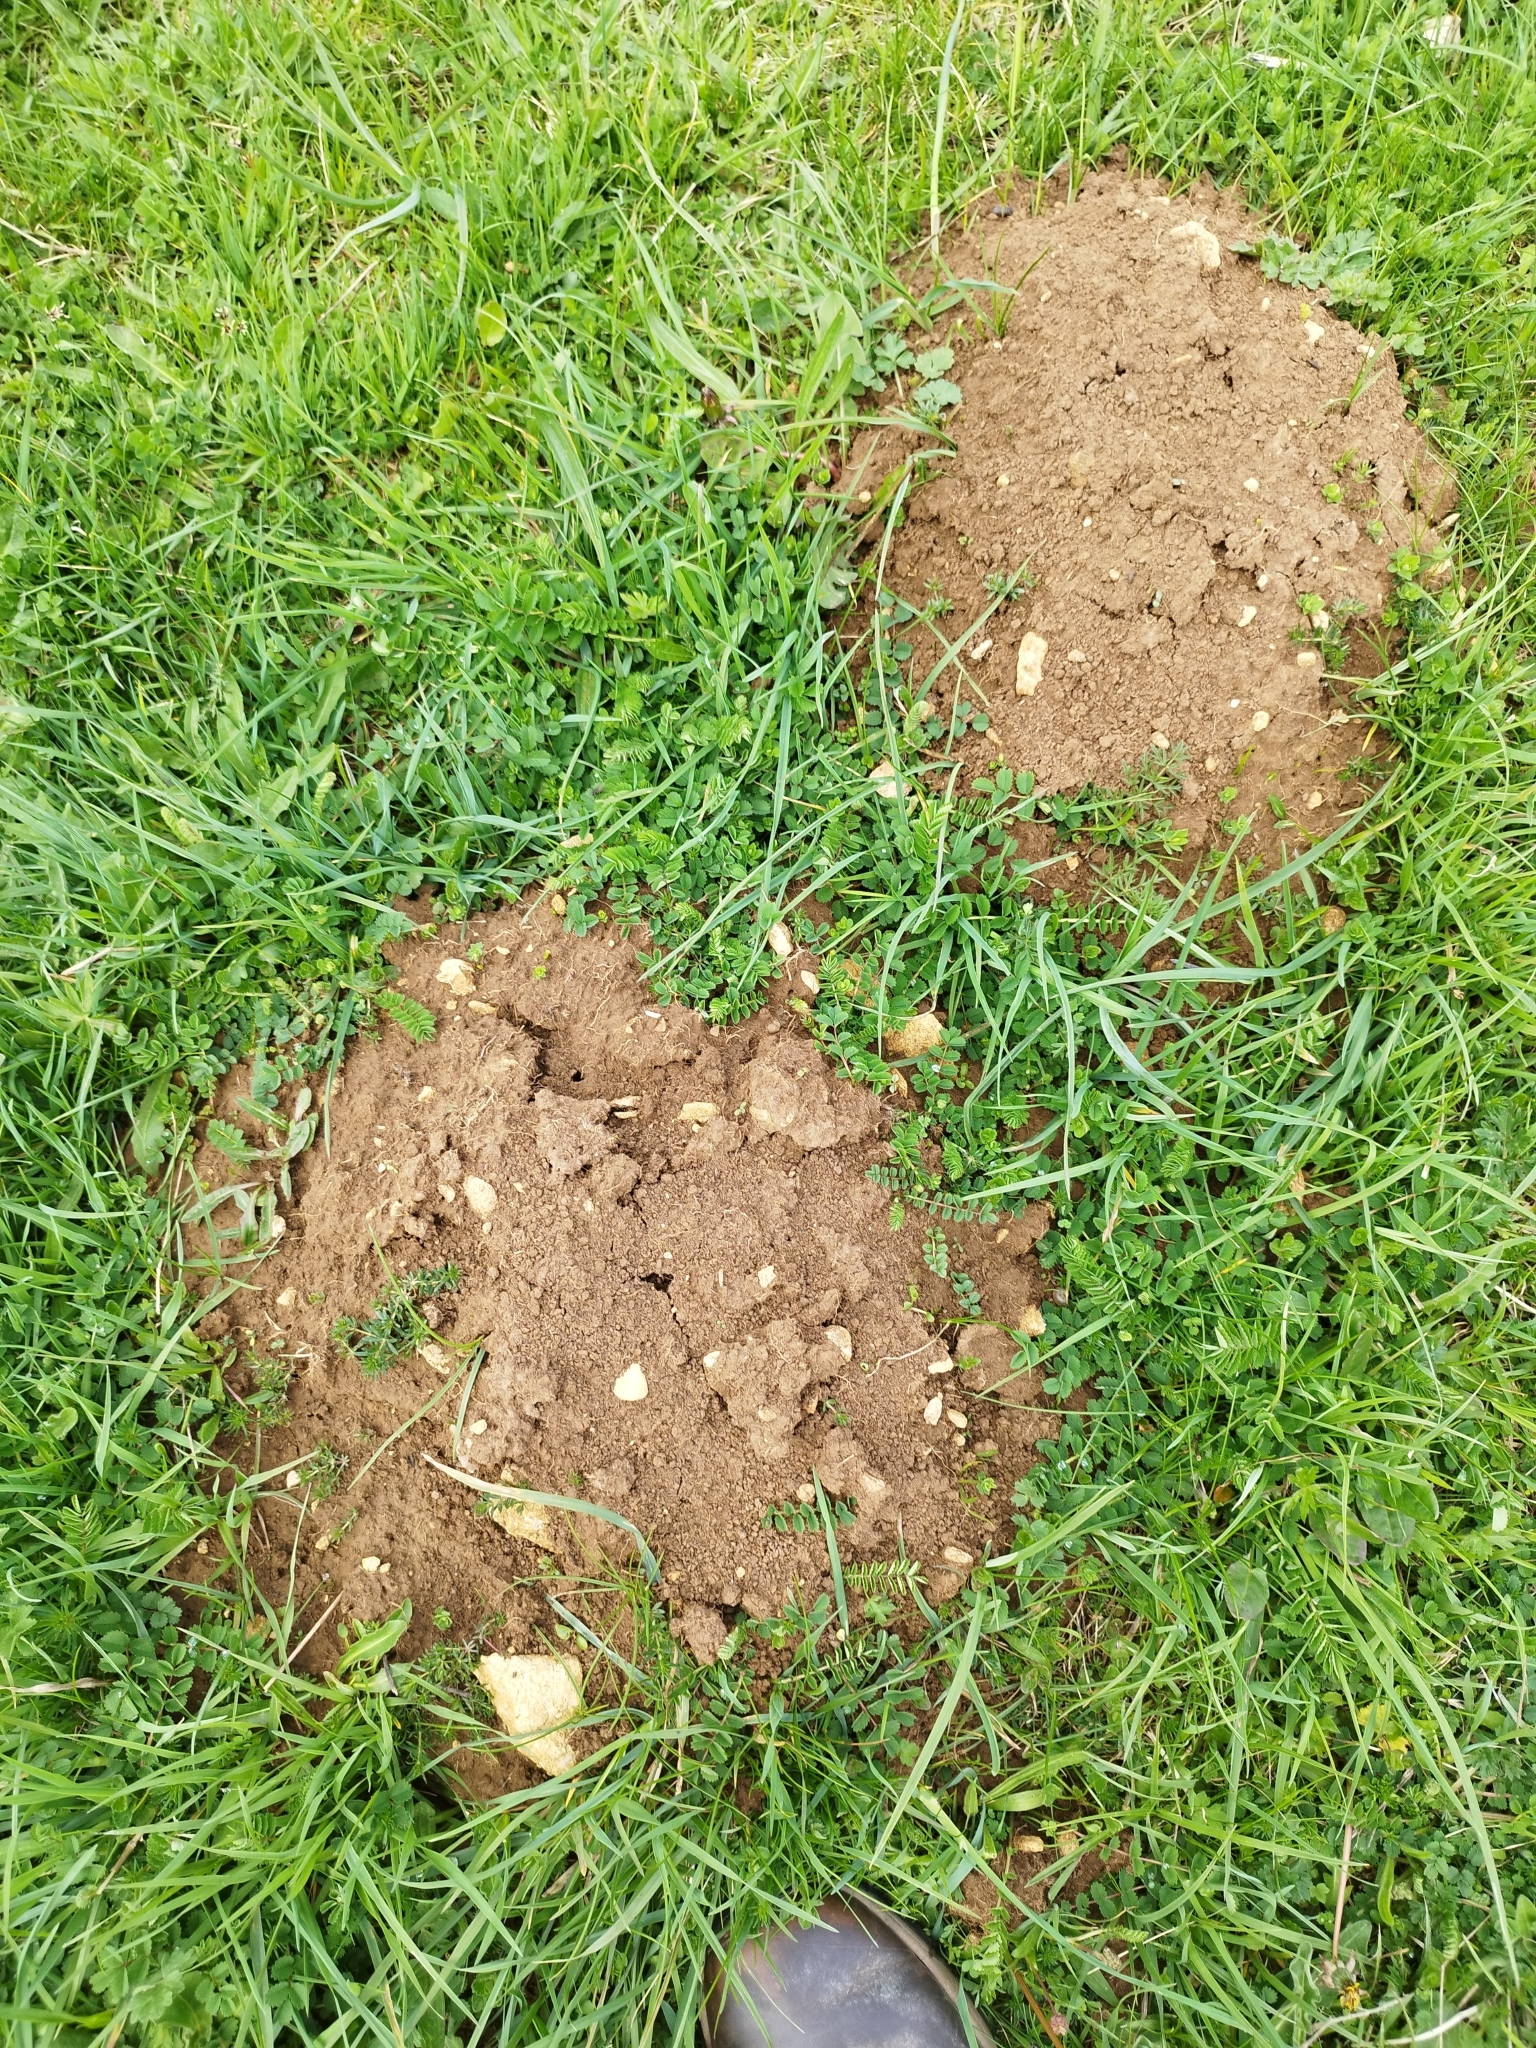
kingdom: Animalia
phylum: Chordata
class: Mammalia
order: Soricomorpha
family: Talpidae
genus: Talpa
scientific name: Talpa europaea
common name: European mole
